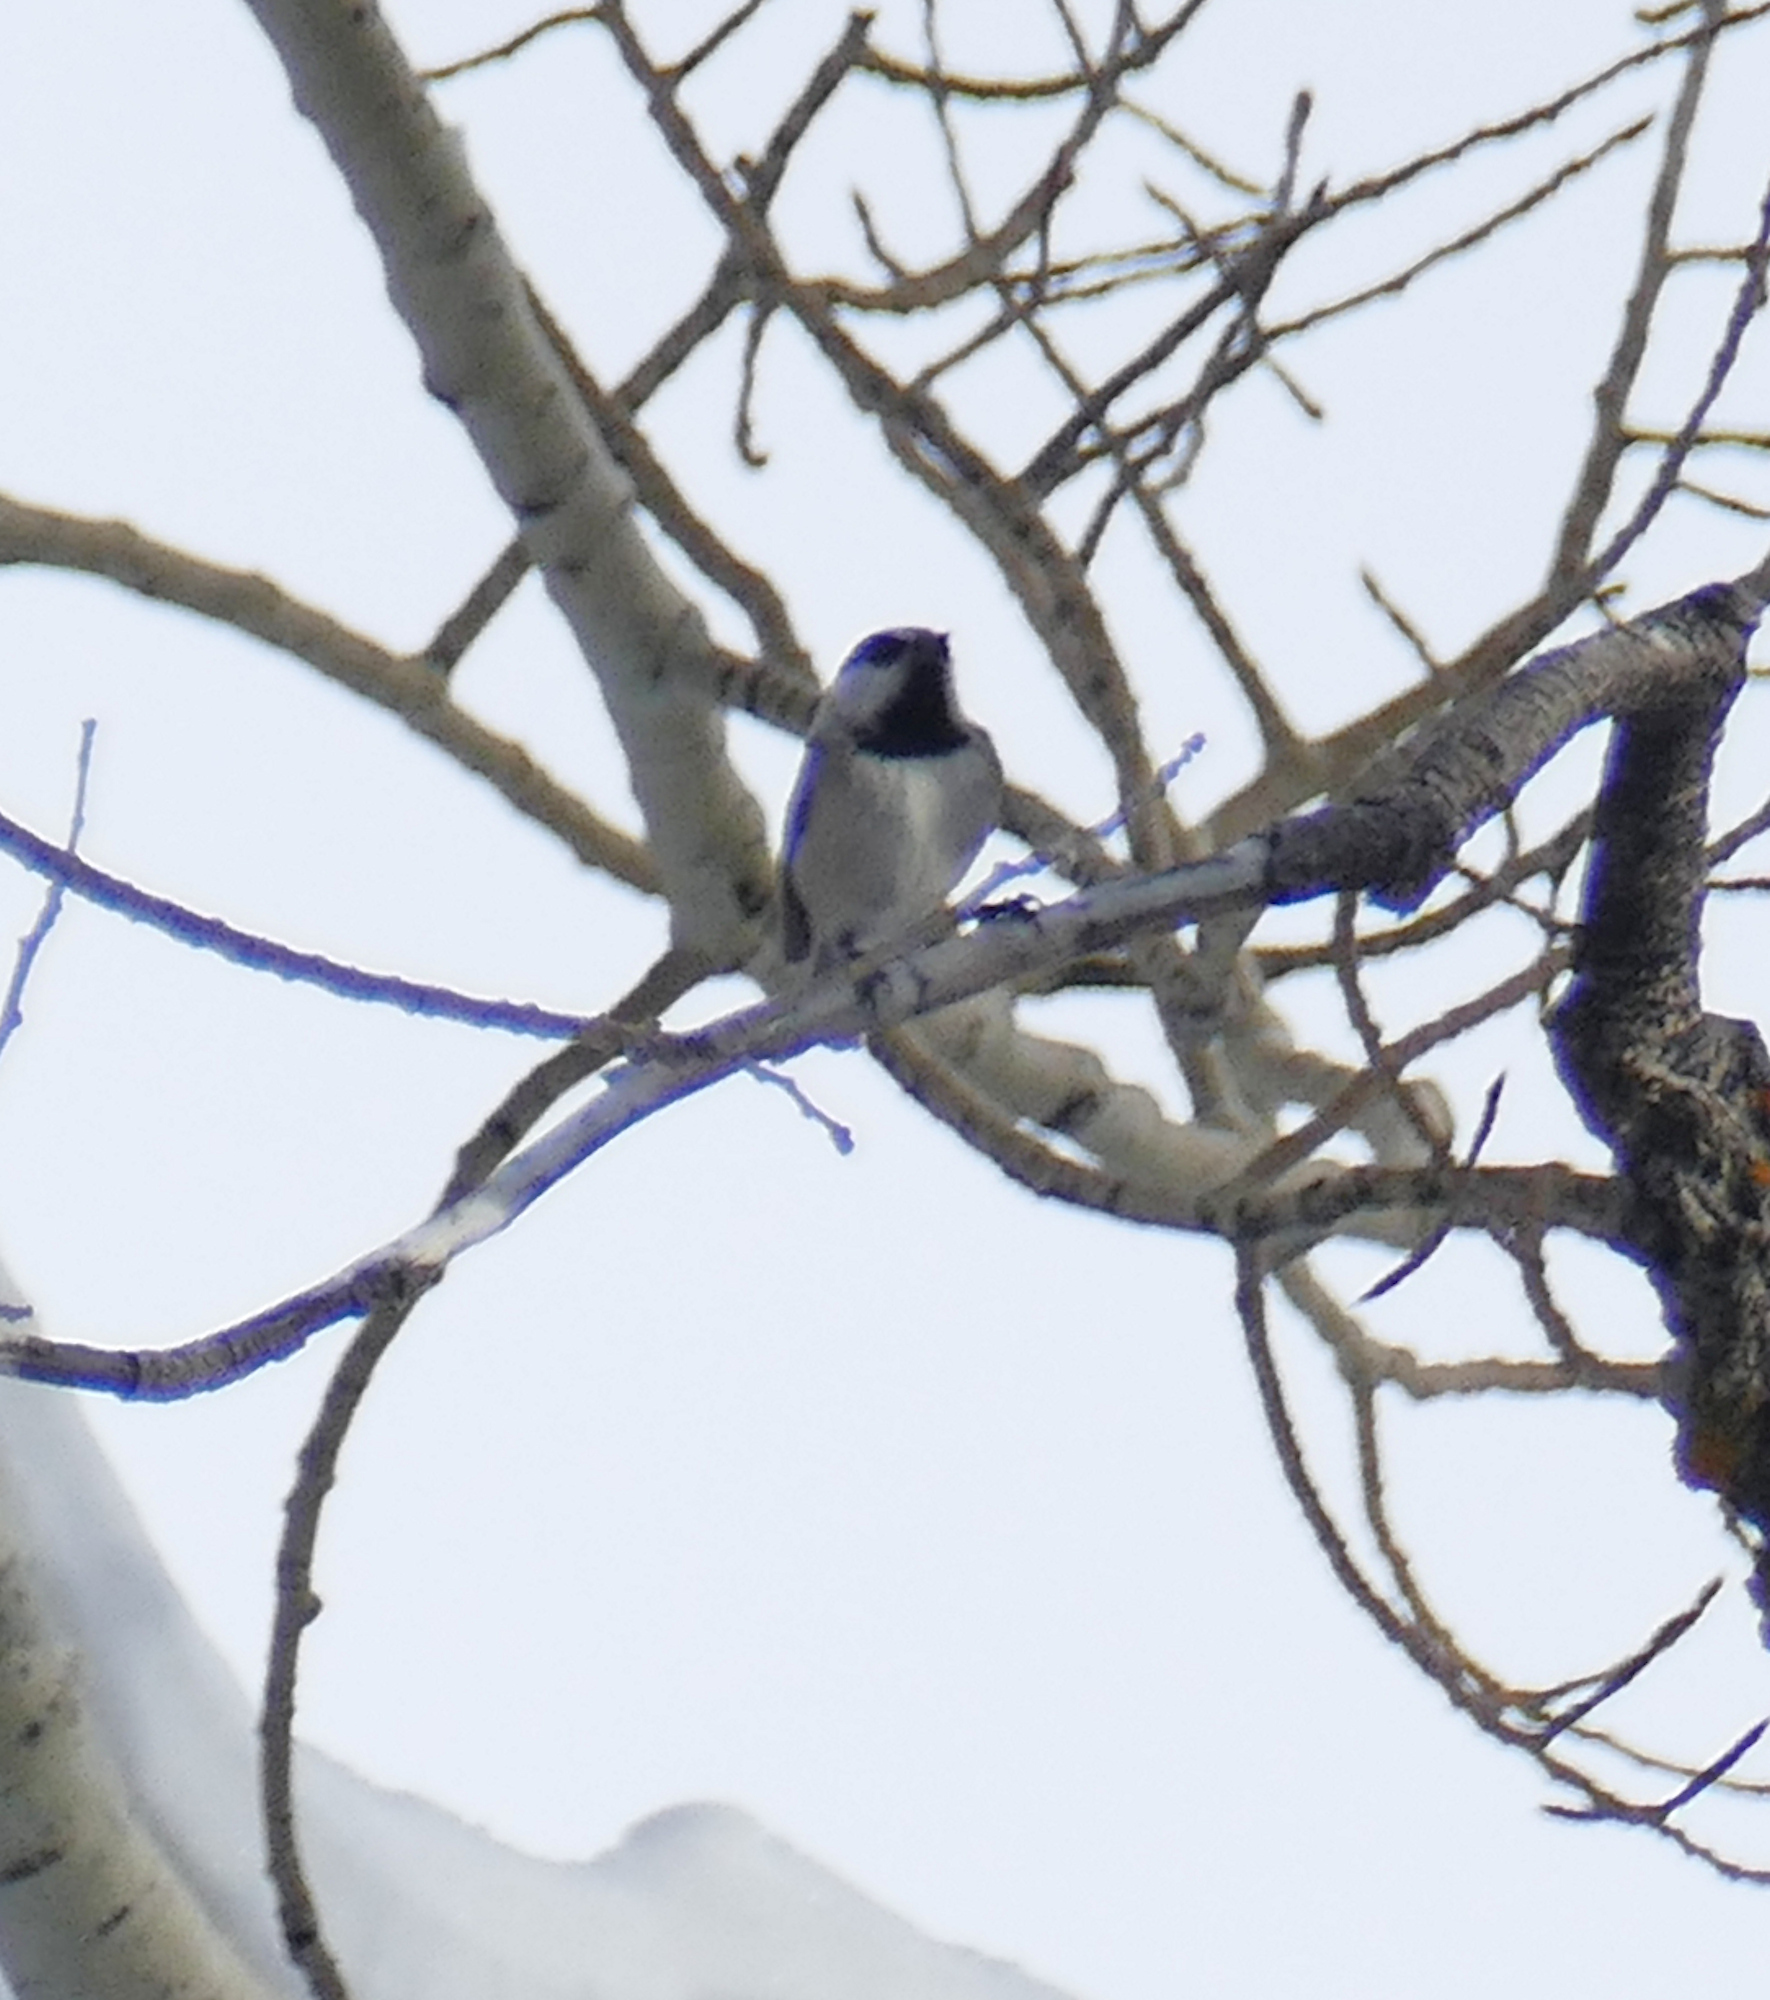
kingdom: Animalia
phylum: Chordata
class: Aves
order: Passeriformes
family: Paridae
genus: Poecile
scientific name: Poecile gambeli
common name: Mountain chickadee
